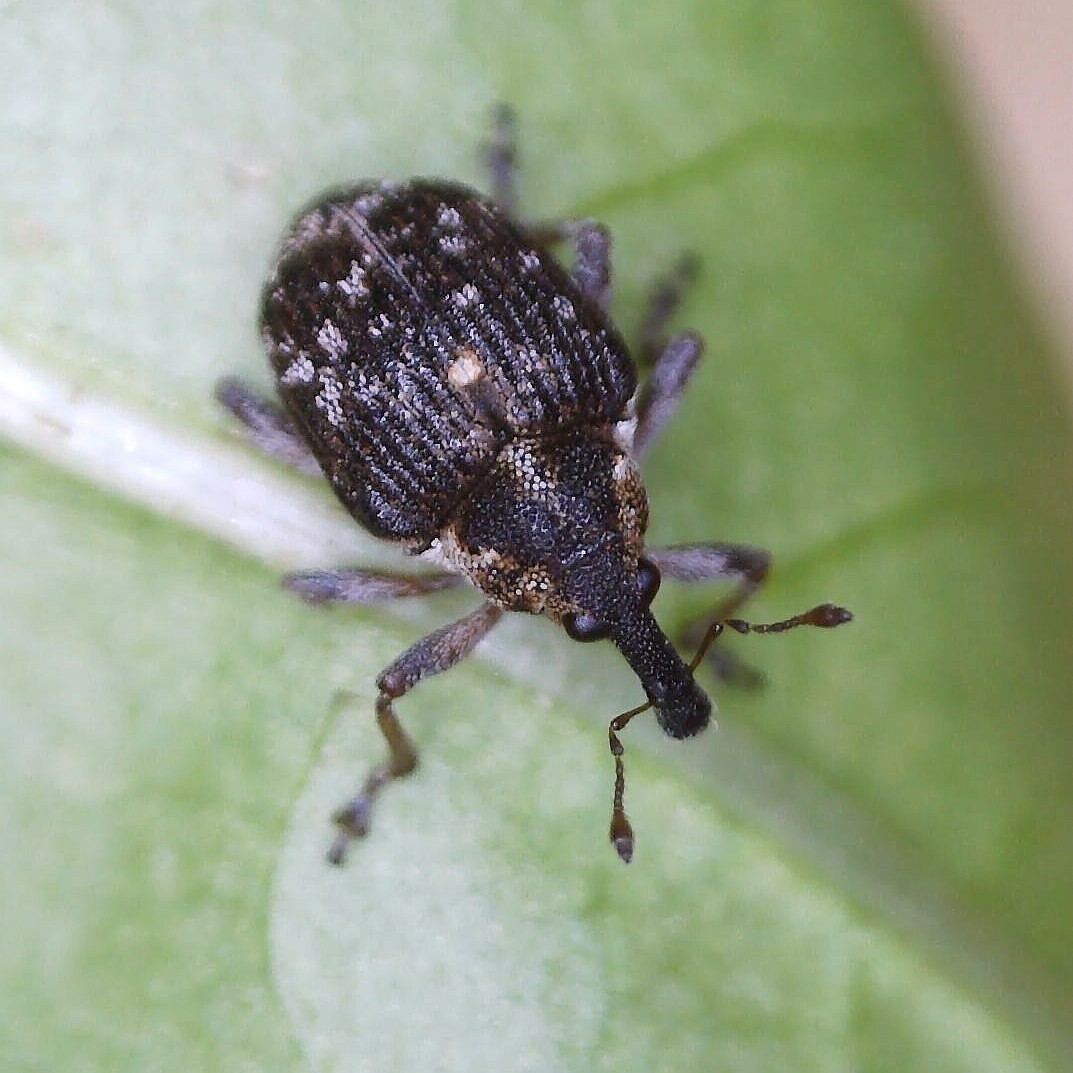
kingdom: Animalia
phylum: Arthropoda
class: Insecta
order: Coleoptera
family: Curculionidae
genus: Phytobius
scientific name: Phytobius waltoni
